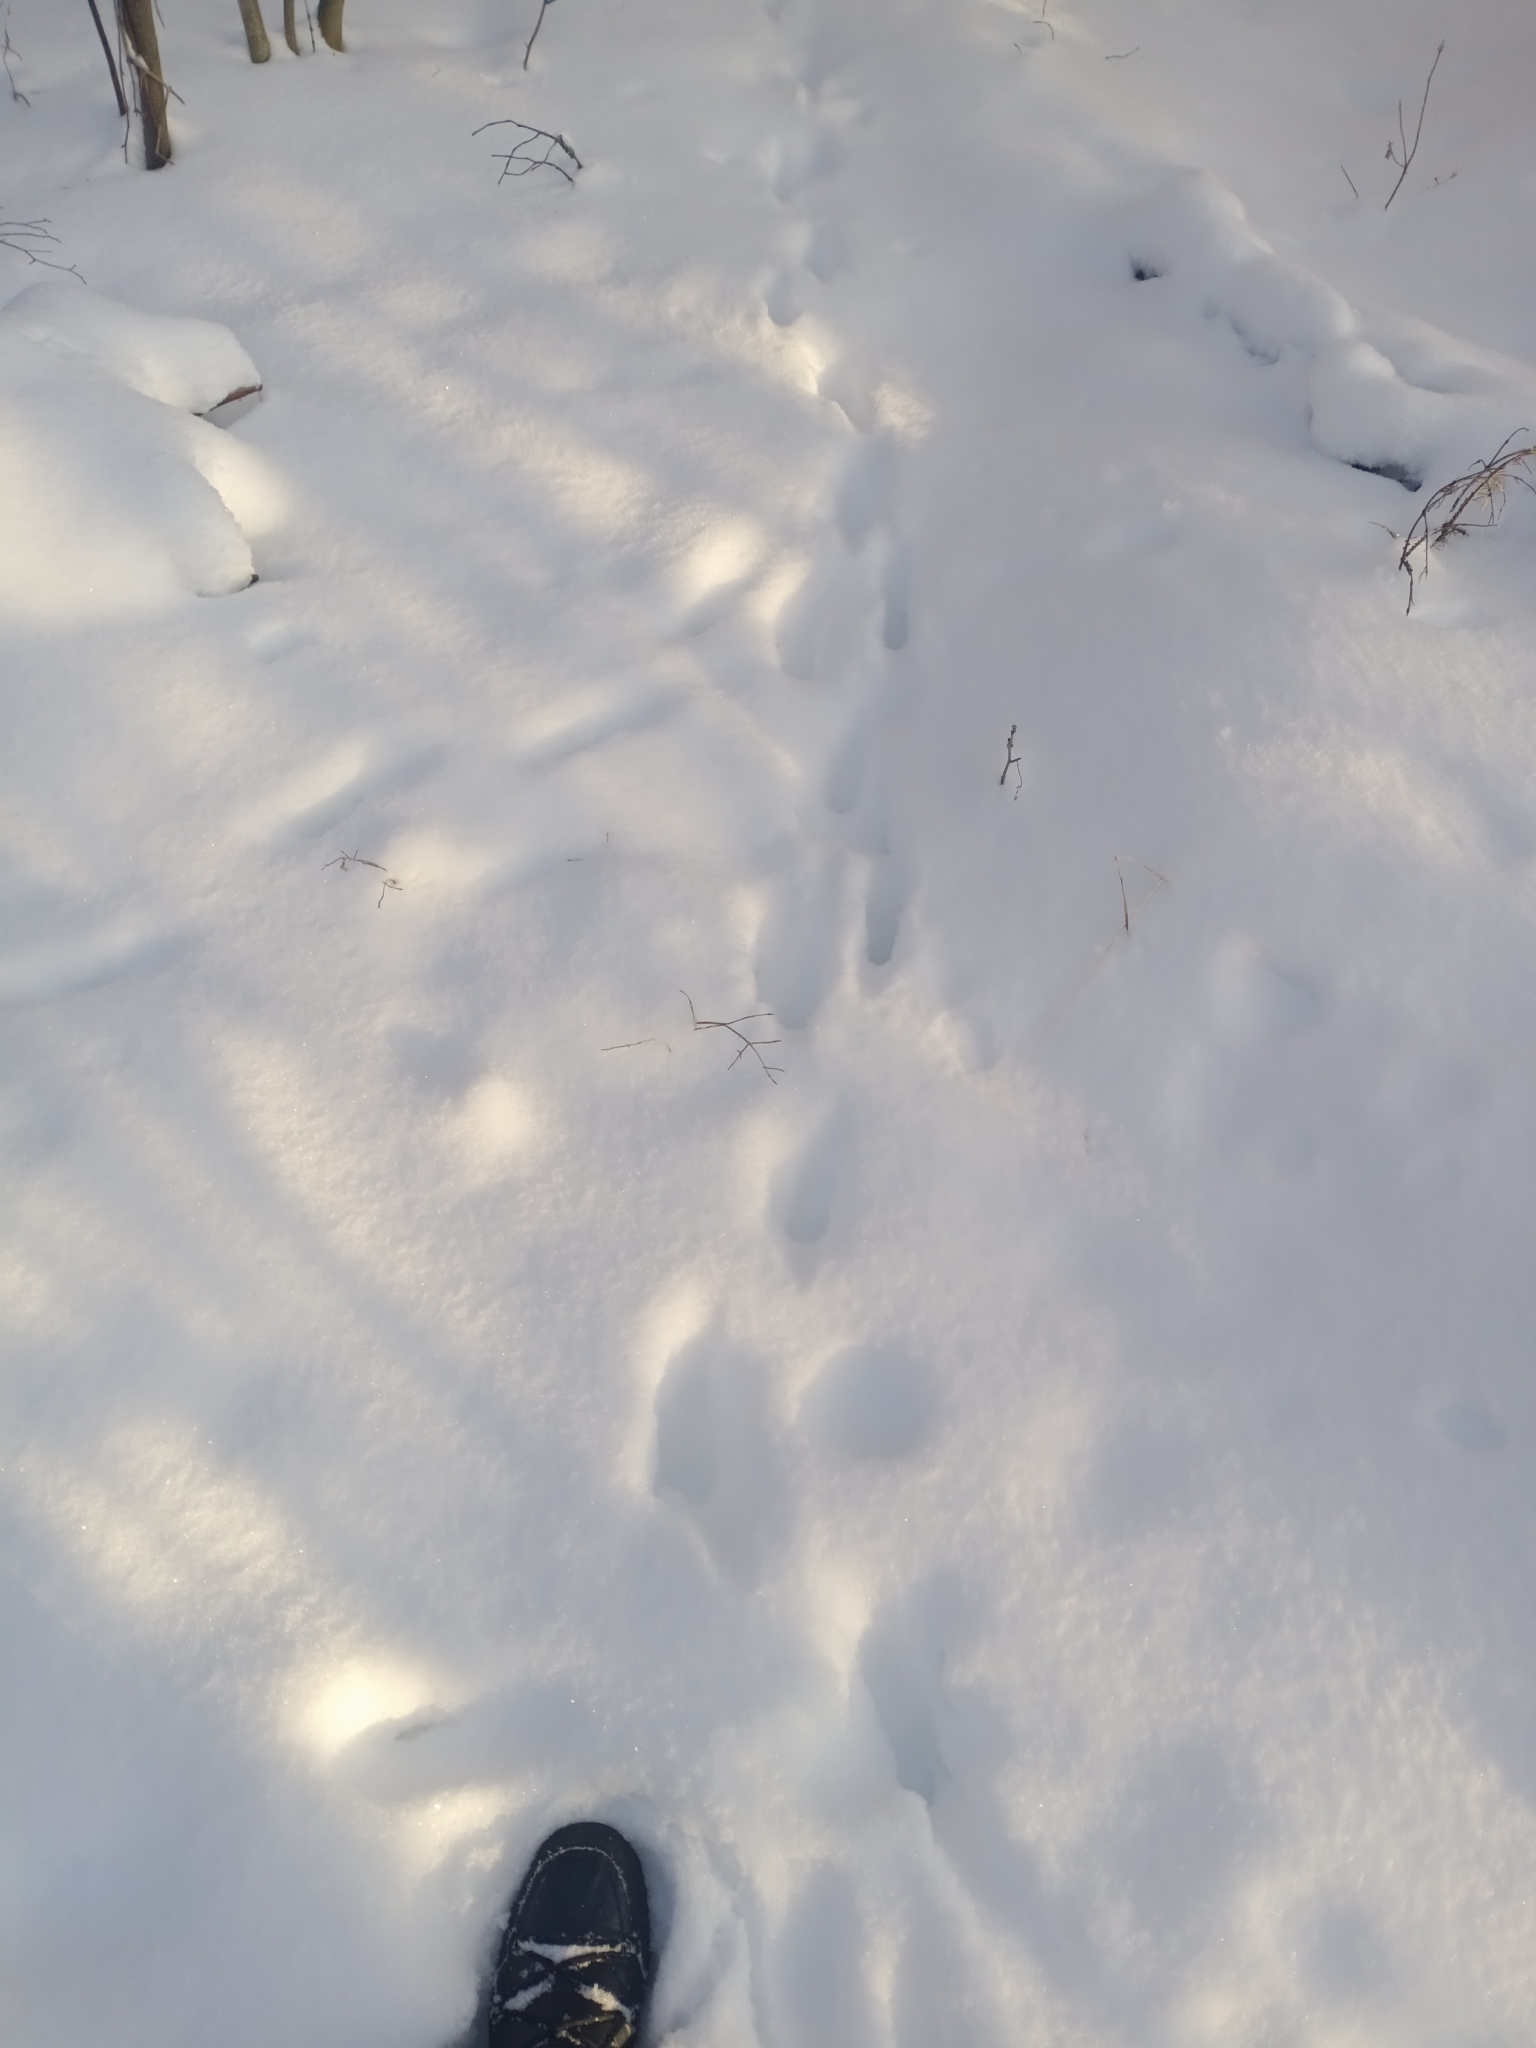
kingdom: Animalia
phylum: Chordata
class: Mammalia
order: Carnivora
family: Canidae
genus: Vulpes
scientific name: Vulpes vulpes
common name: Red fox
